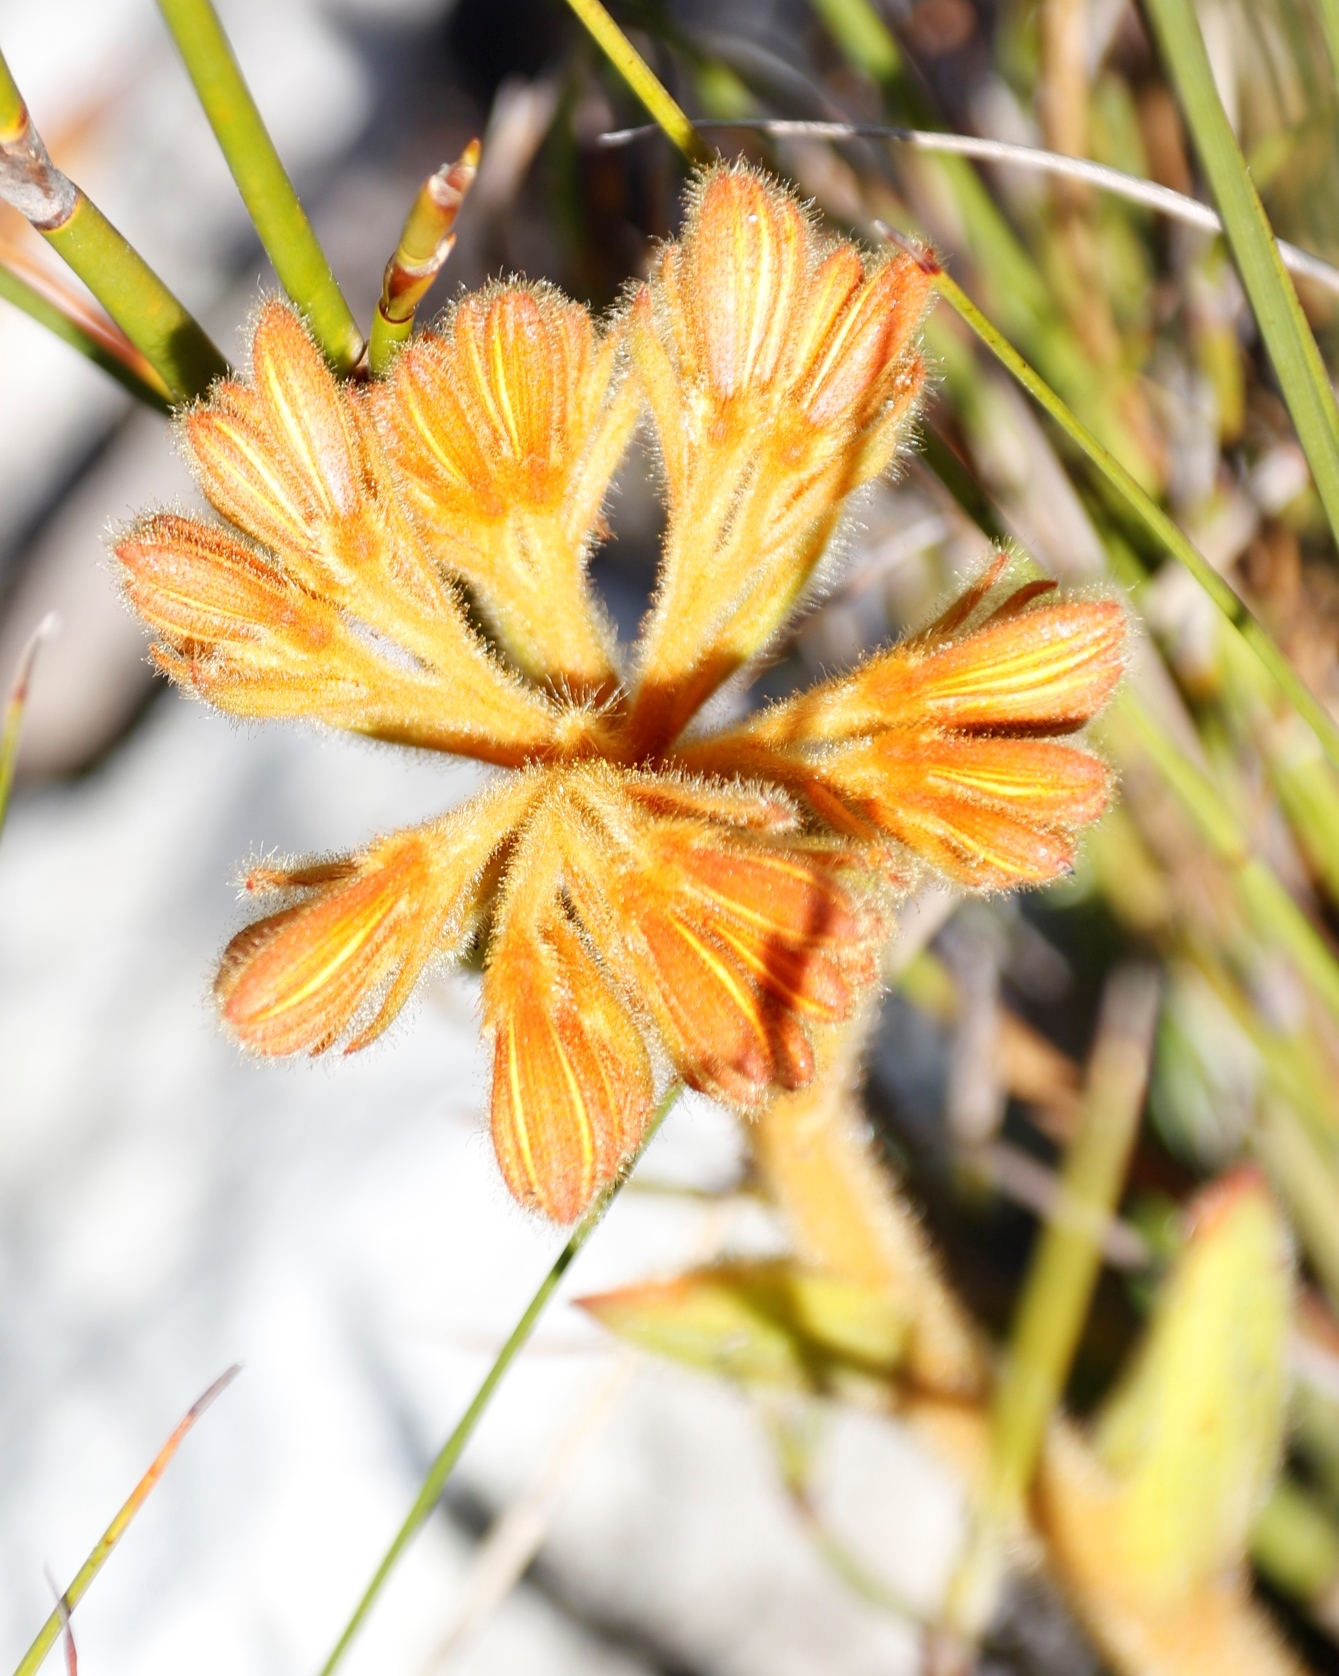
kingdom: Plantae
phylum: Tracheophyta
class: Liliopsida
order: Commelinales
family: Haemodoraceae
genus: Dilatris
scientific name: Dilatris viscosa
